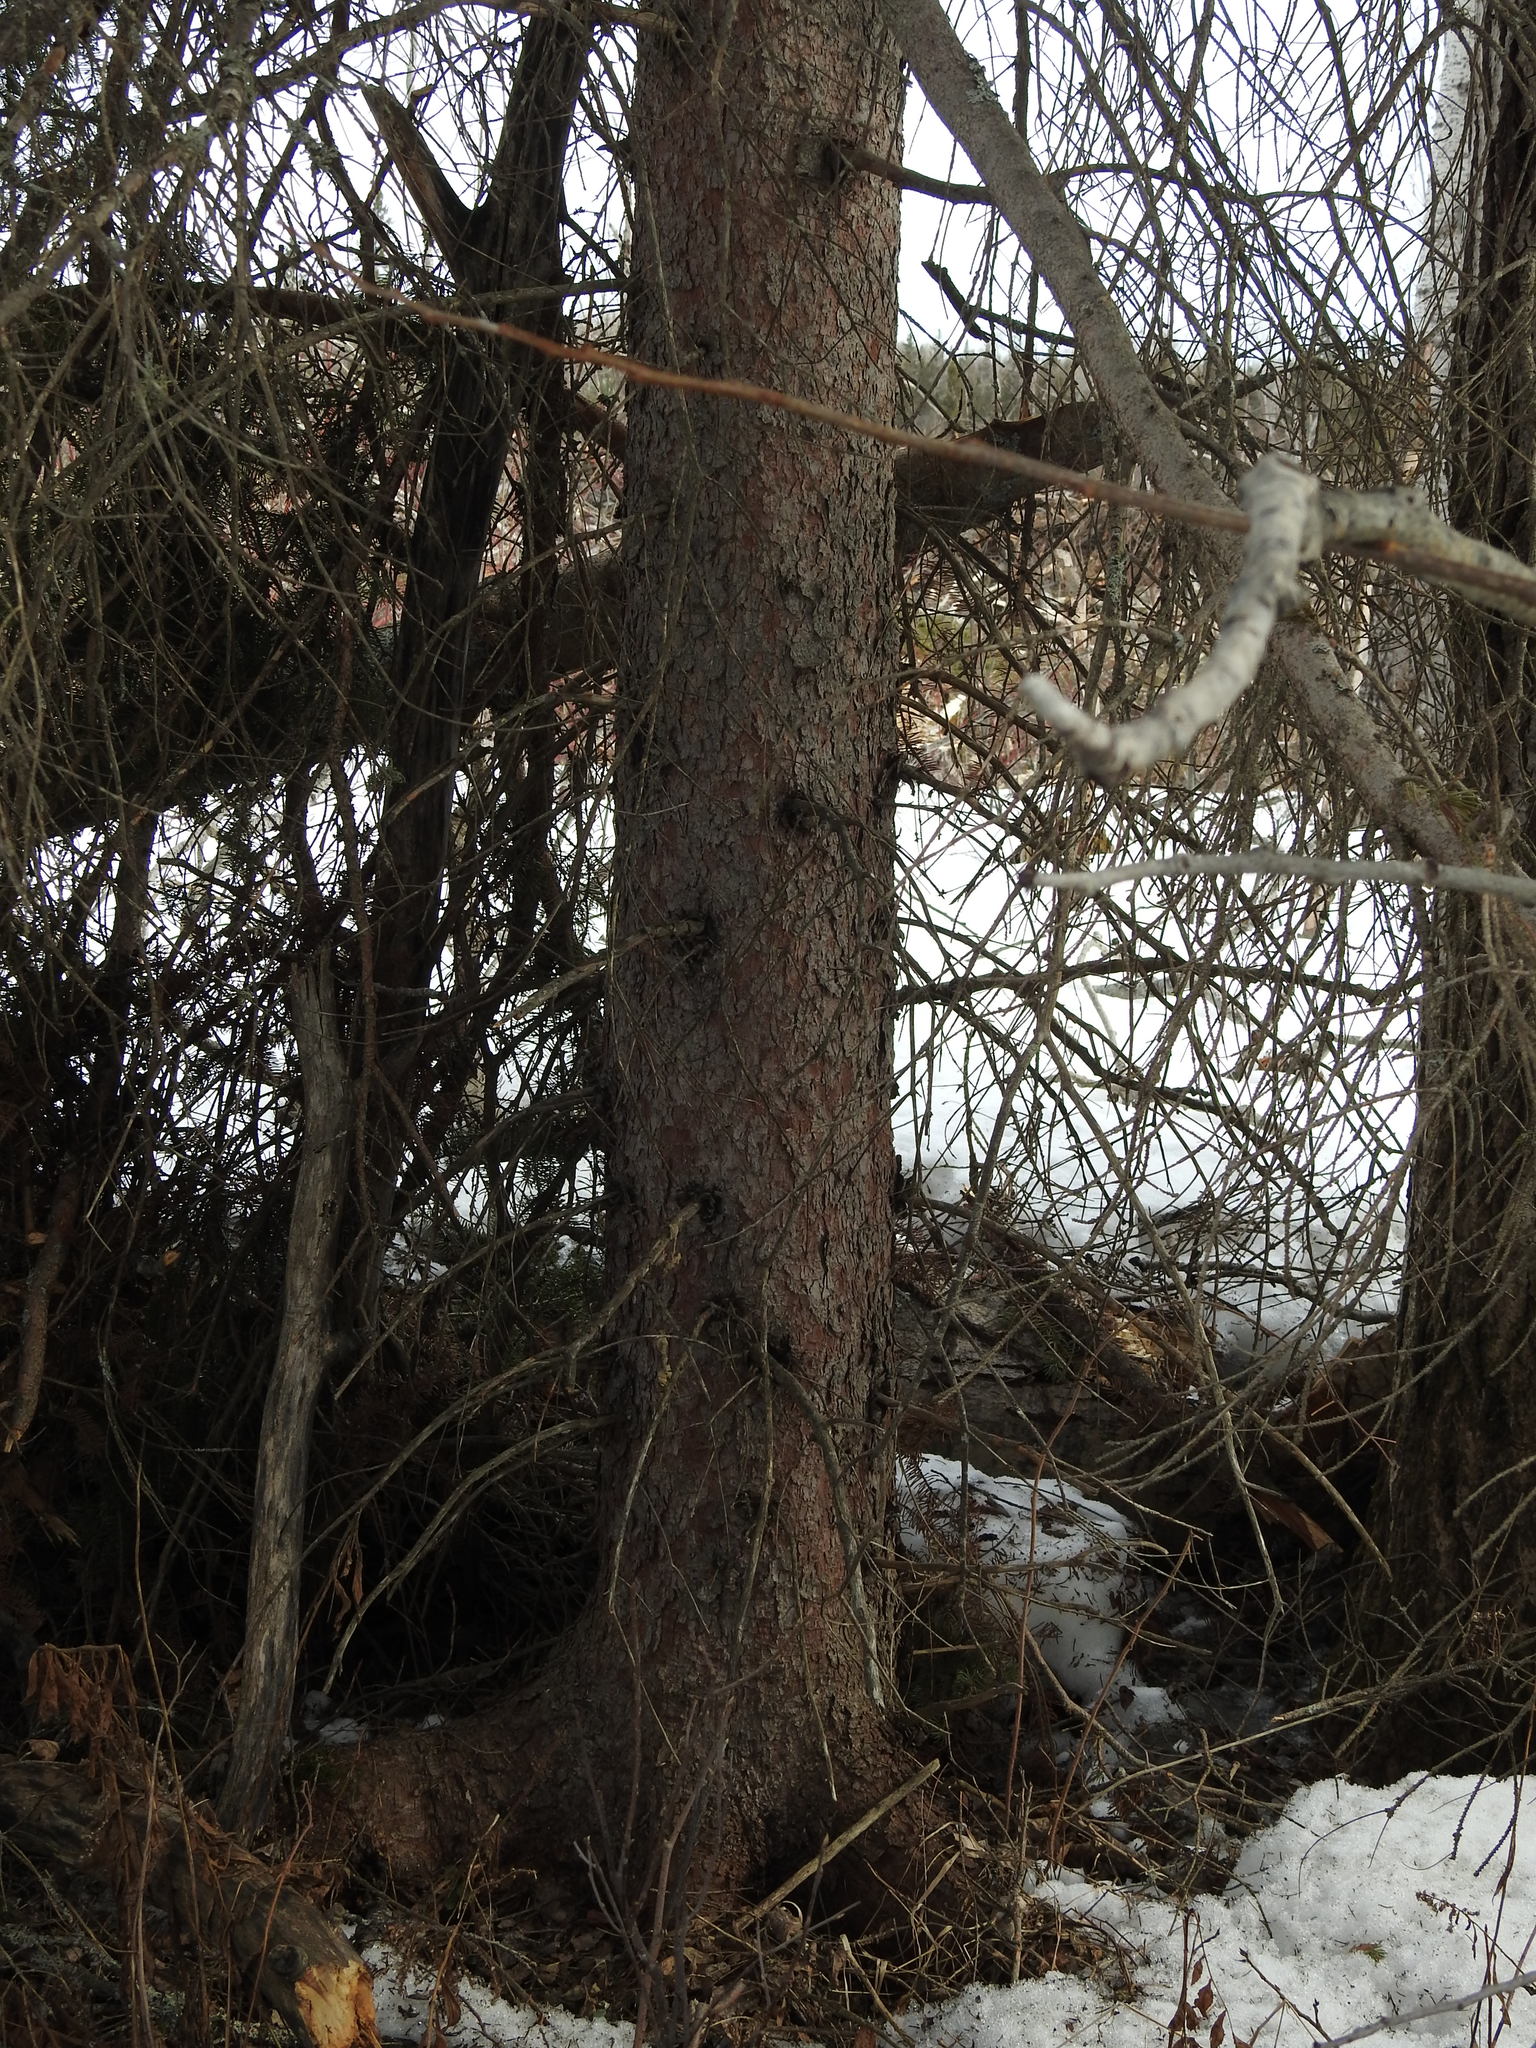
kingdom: Plantae
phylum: Tracheophyta
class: Pinopsida
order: Pinales
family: Pinaceae
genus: Picea
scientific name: Picea glauca
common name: White spruce
